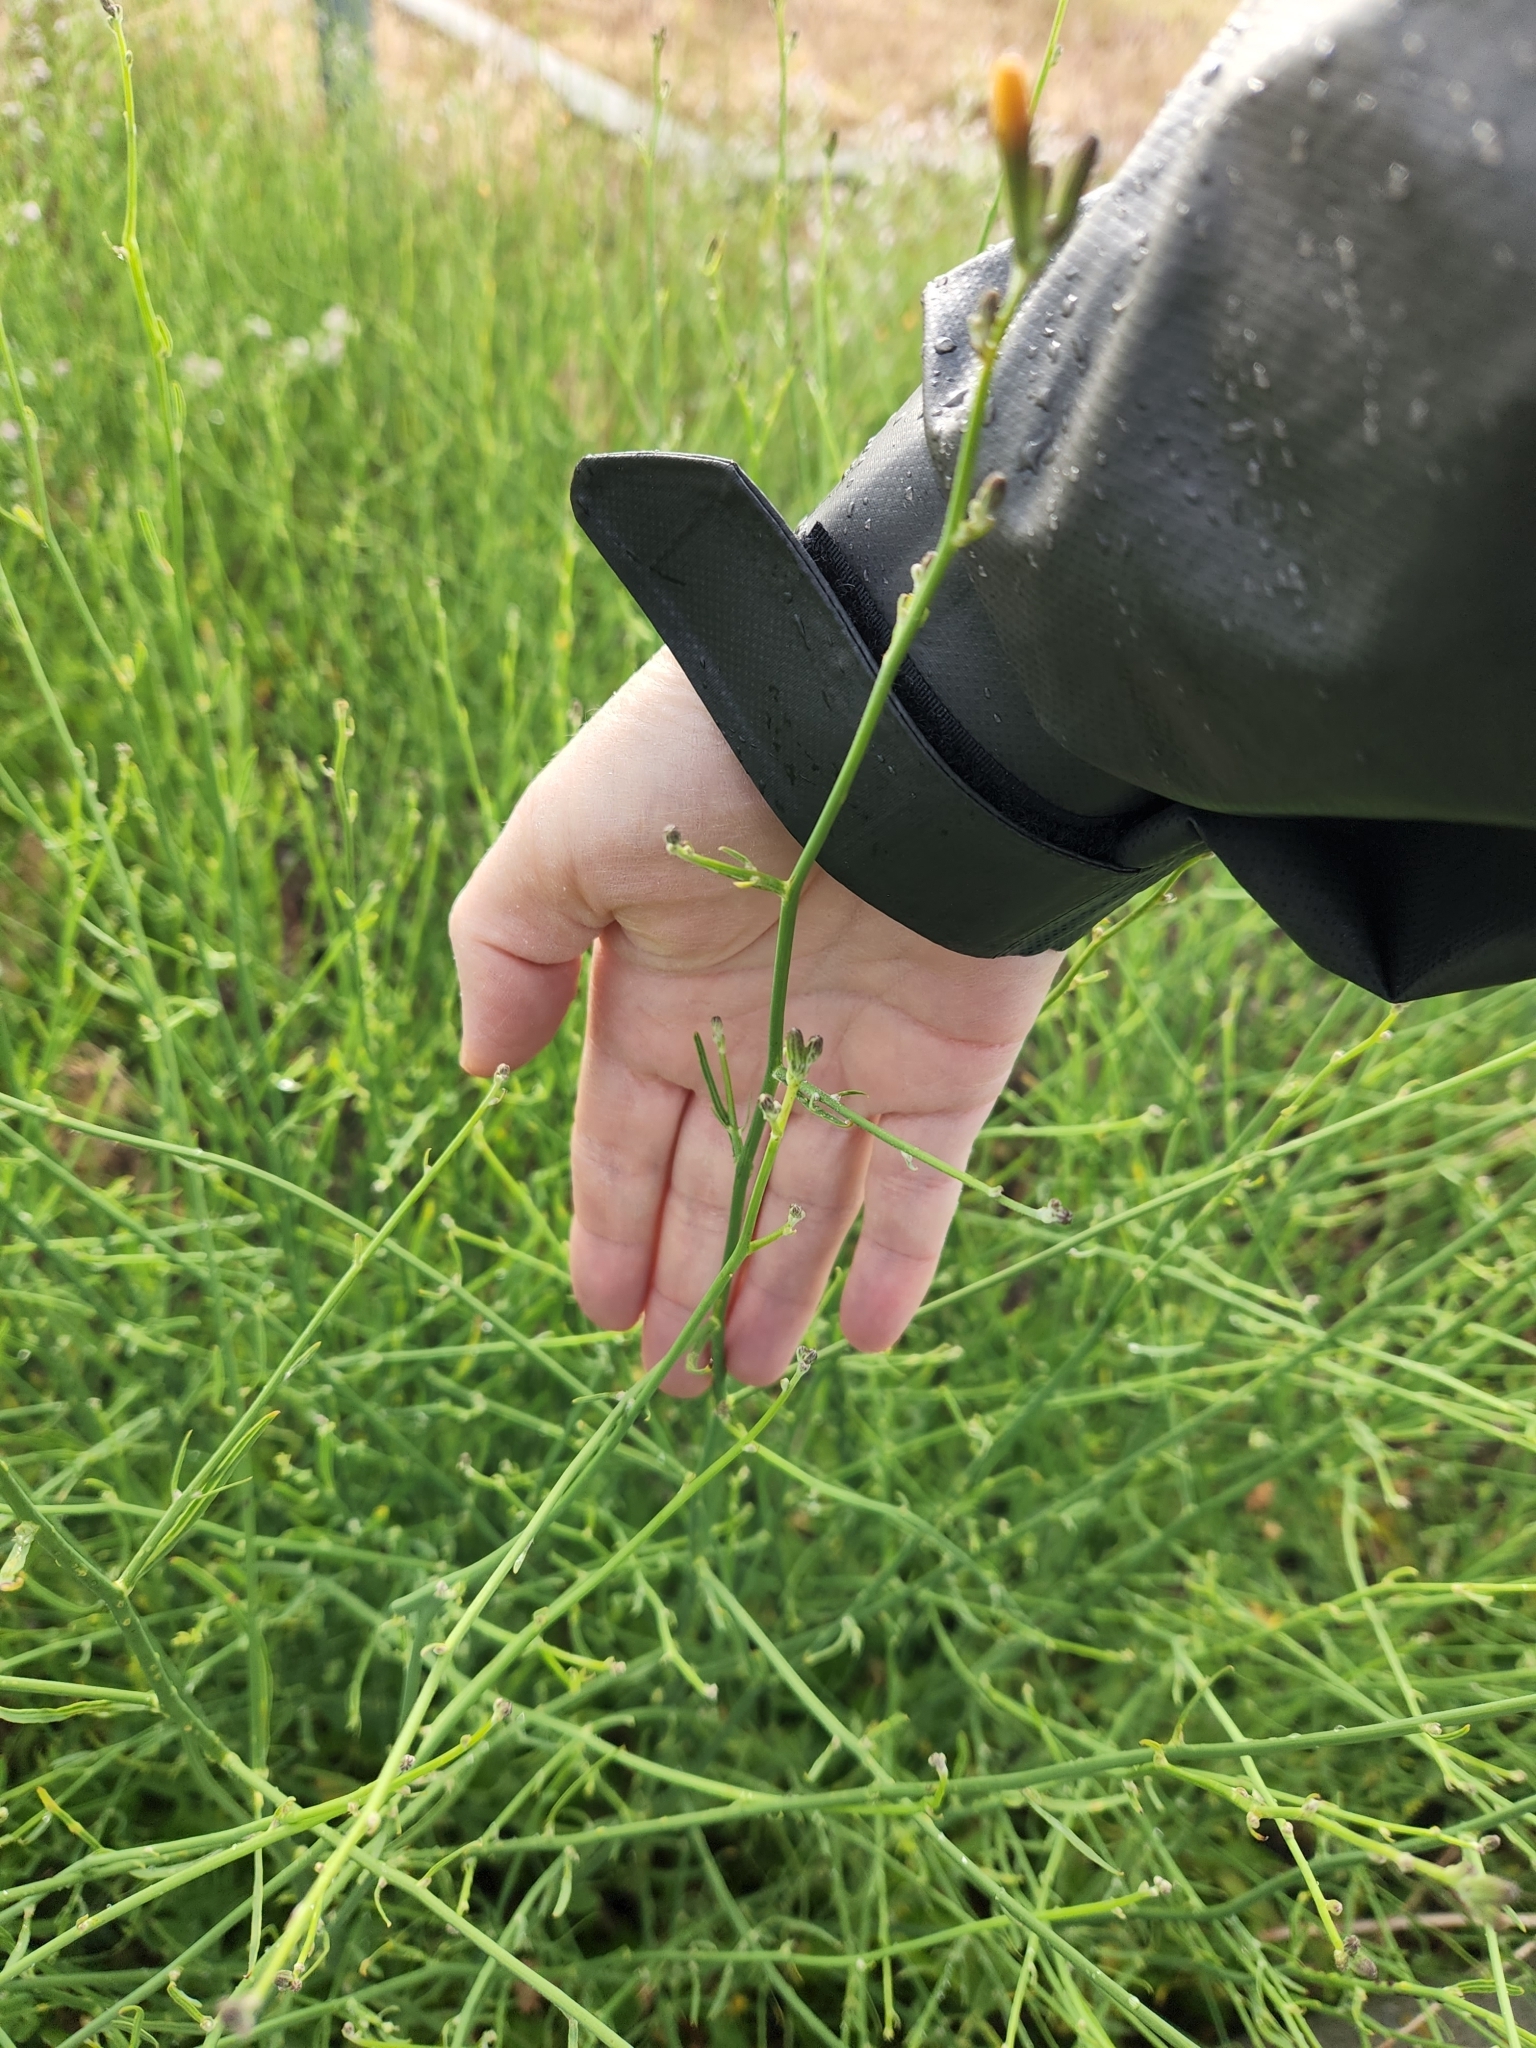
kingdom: Plantae
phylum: Tracheophyta
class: Magnoliopsida
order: Asterales
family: Asteraceae
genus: Chondrilla
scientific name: Chondrilla juncea
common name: Skeleton weed
